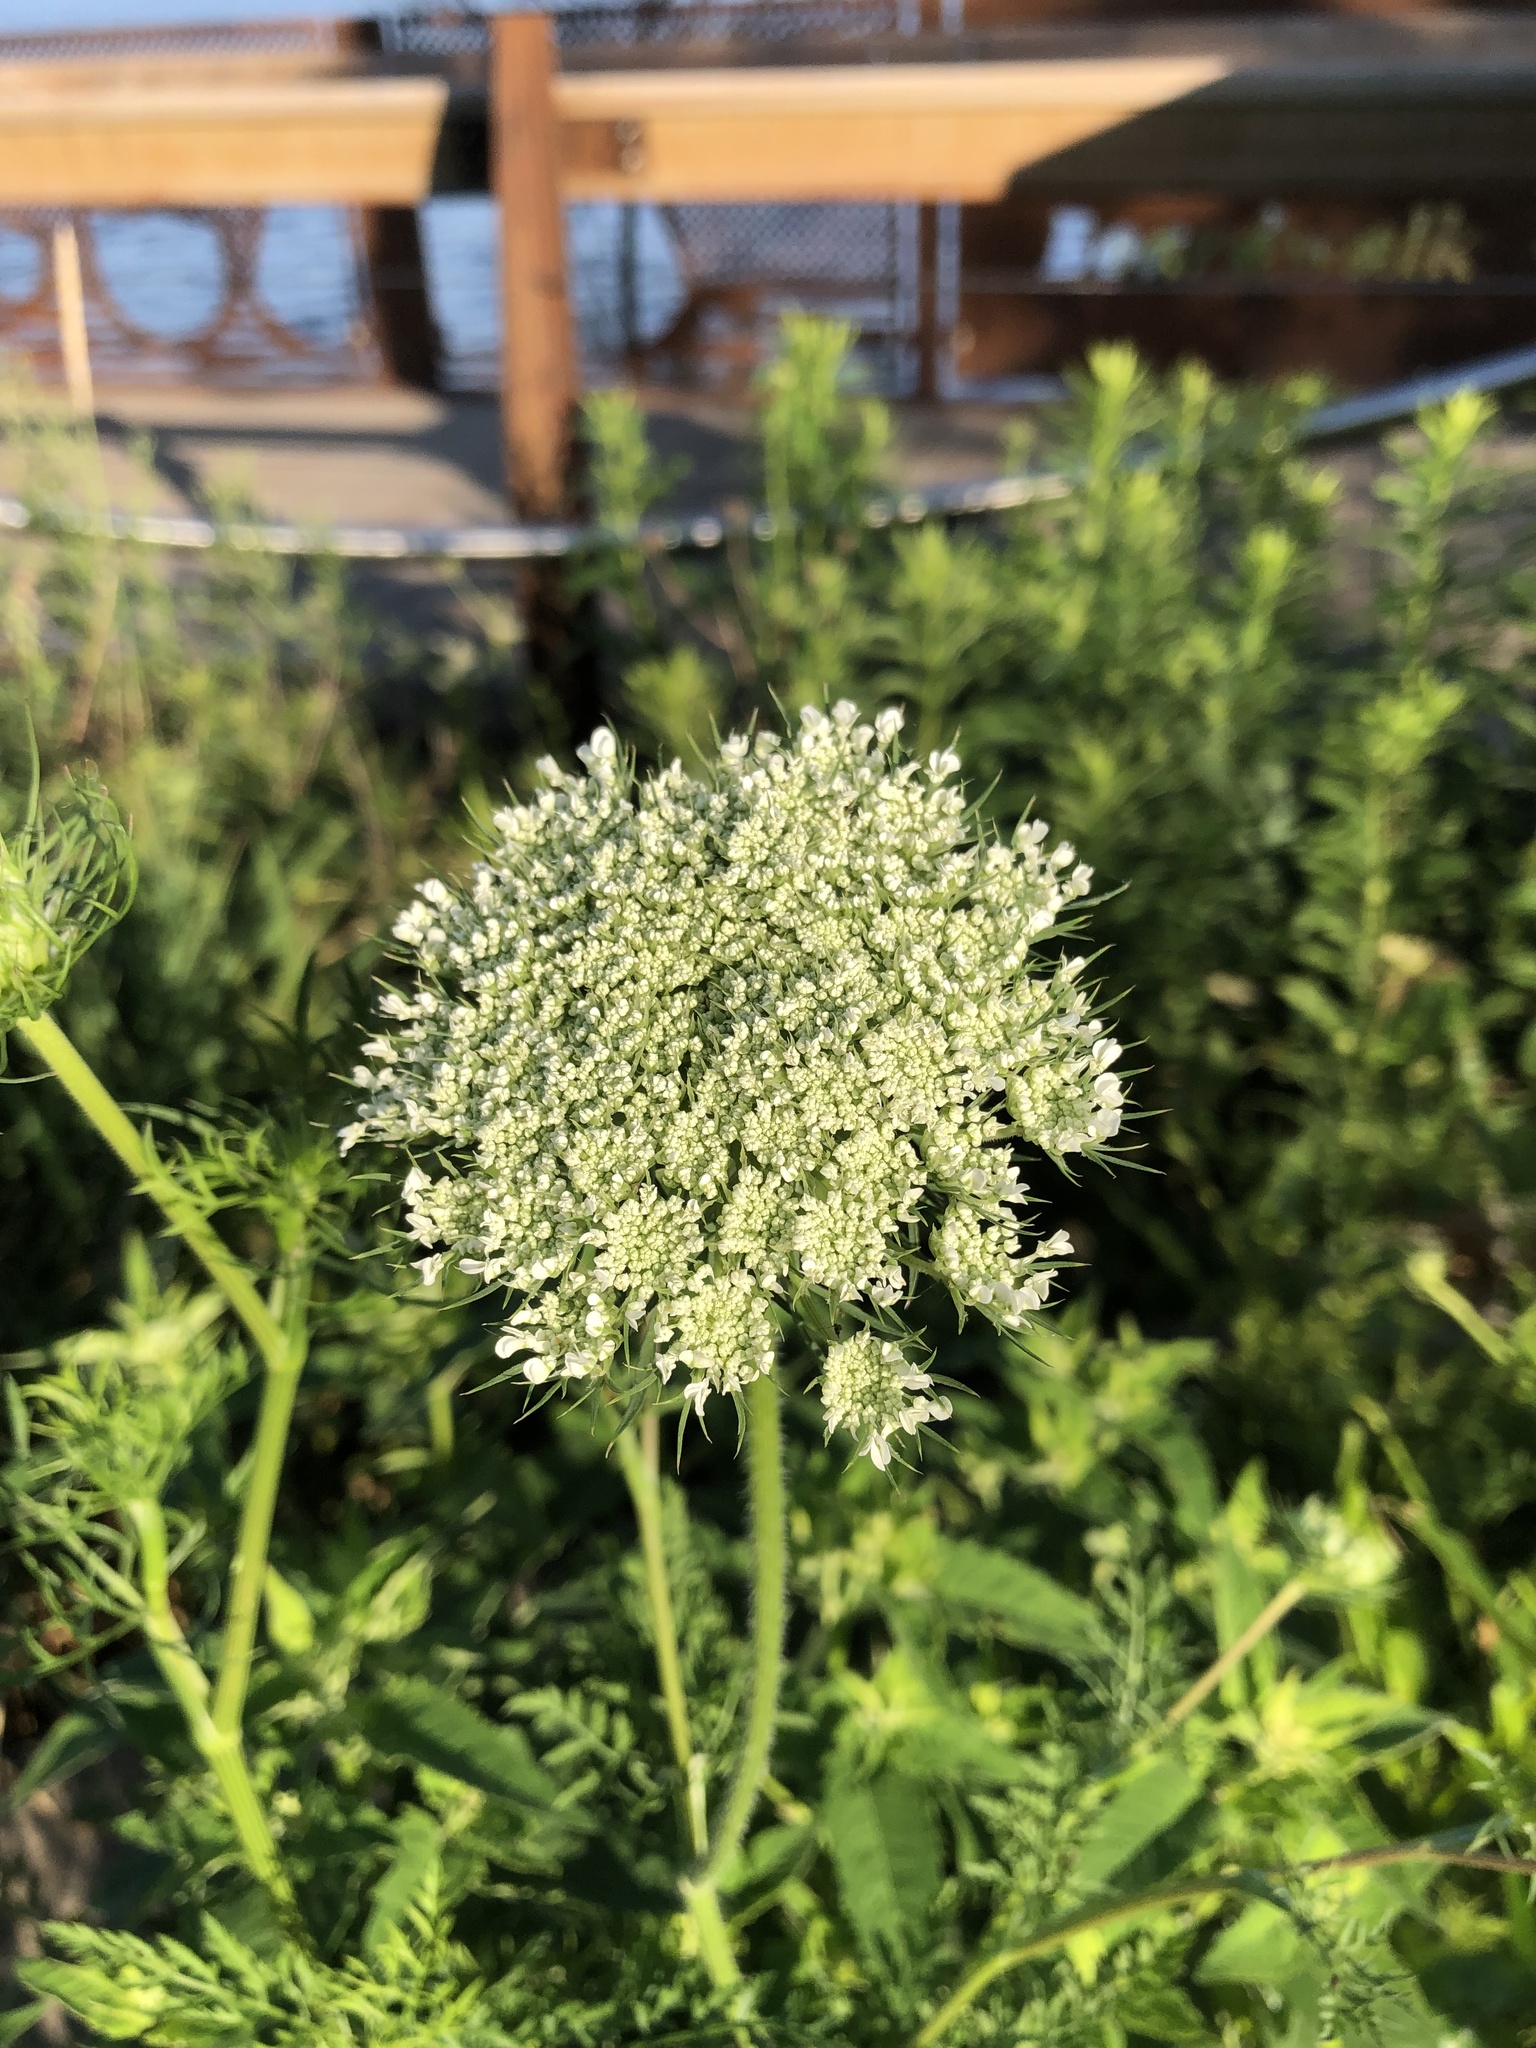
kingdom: Plantae
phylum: Tracheophyta
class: Magnoliopsida
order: Apiales
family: Apiaceae
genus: Daucus
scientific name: Daucus carota
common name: Wild carrot
